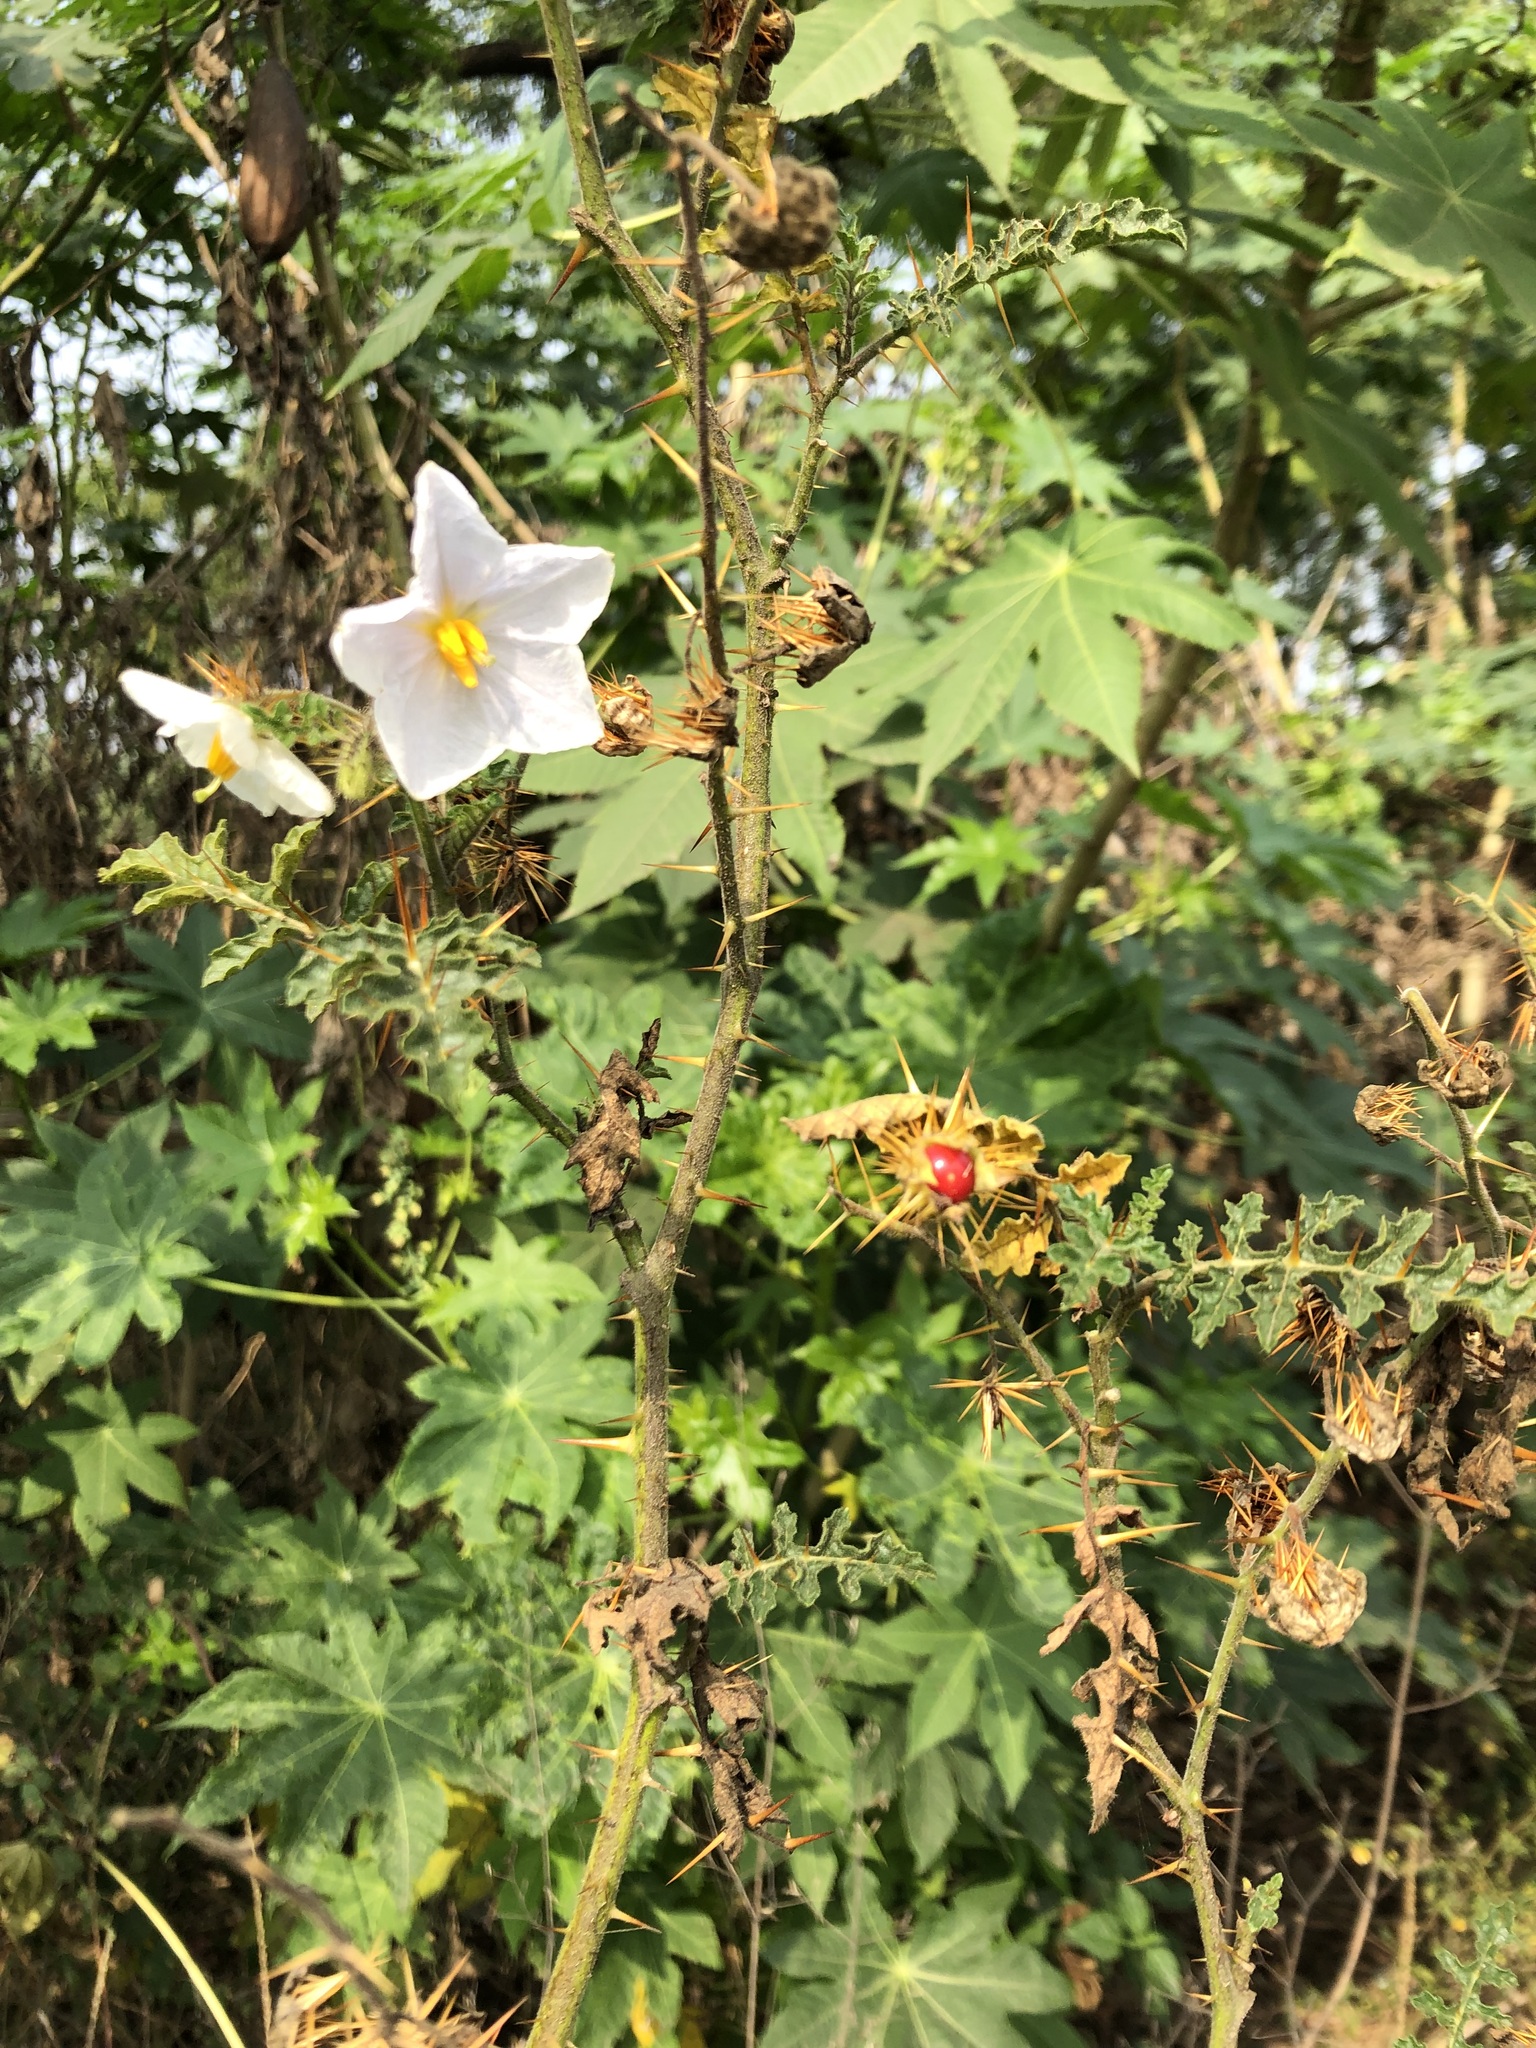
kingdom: Plantae
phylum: Tracheophyta
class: Magnoliopsida
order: Solanales
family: Solanaceae
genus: Solanum
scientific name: Solanum sisymbriifolium
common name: Red buffalo-bur
